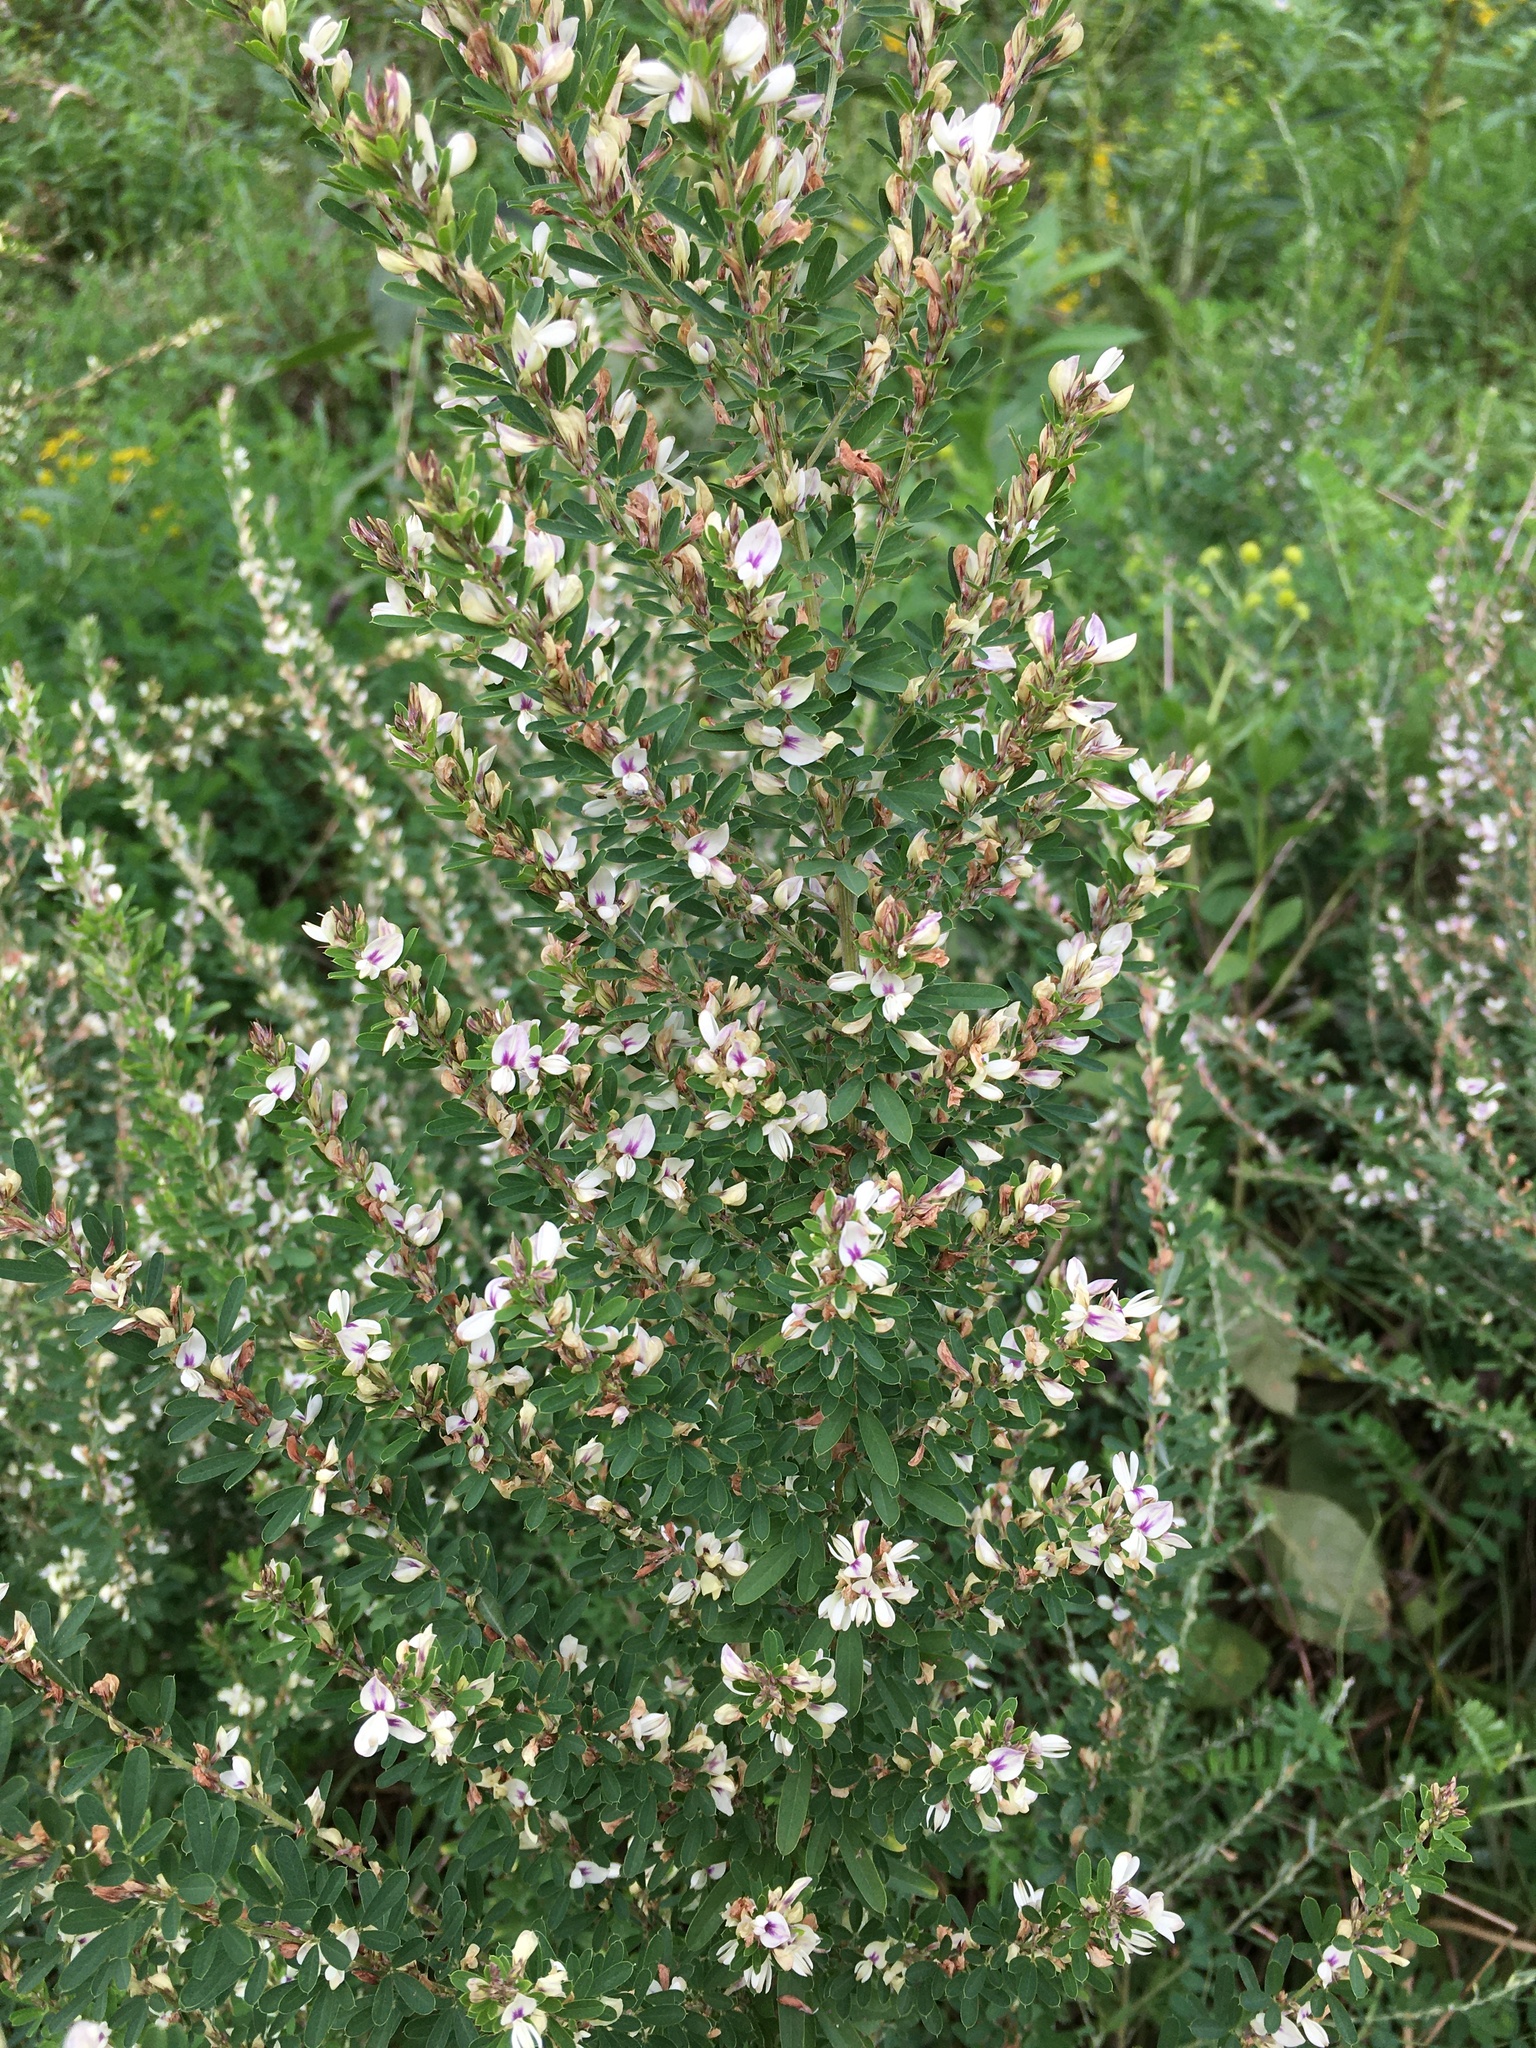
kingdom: Plantae
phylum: Tracheophyta
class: Magnoliopsida
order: Fabales
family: Fabaceae
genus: Lespedeza
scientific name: Lespedeza cuneata
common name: Chinese bush-clover
